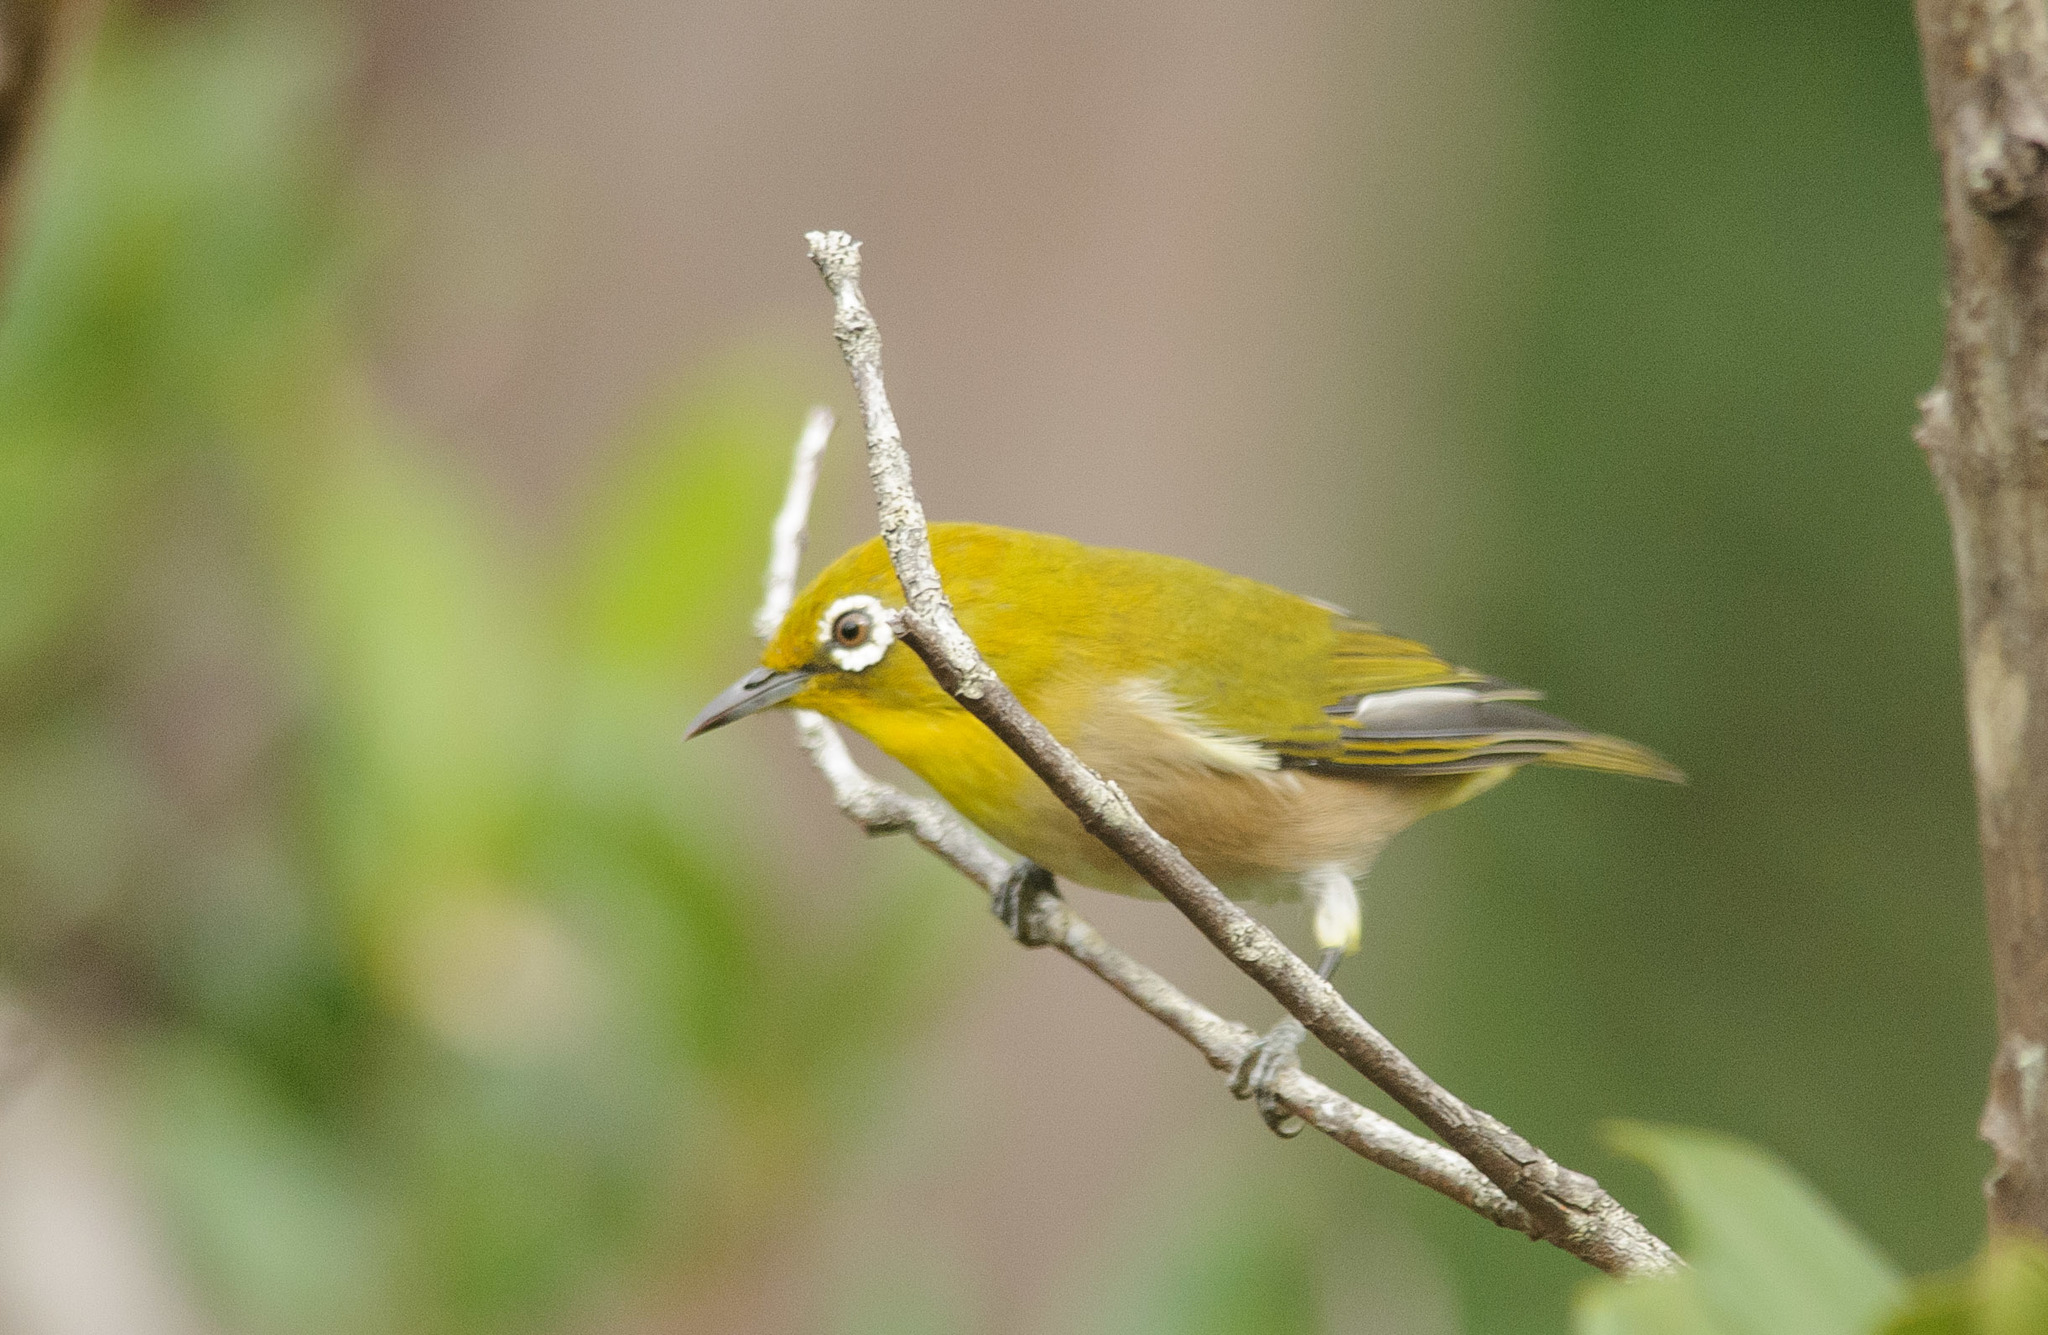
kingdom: Animalia
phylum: Chordata
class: Aves
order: Passeriformes
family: Zosteropidae
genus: Zosterops
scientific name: Zosterops japonicus
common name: Japanese white-eye
